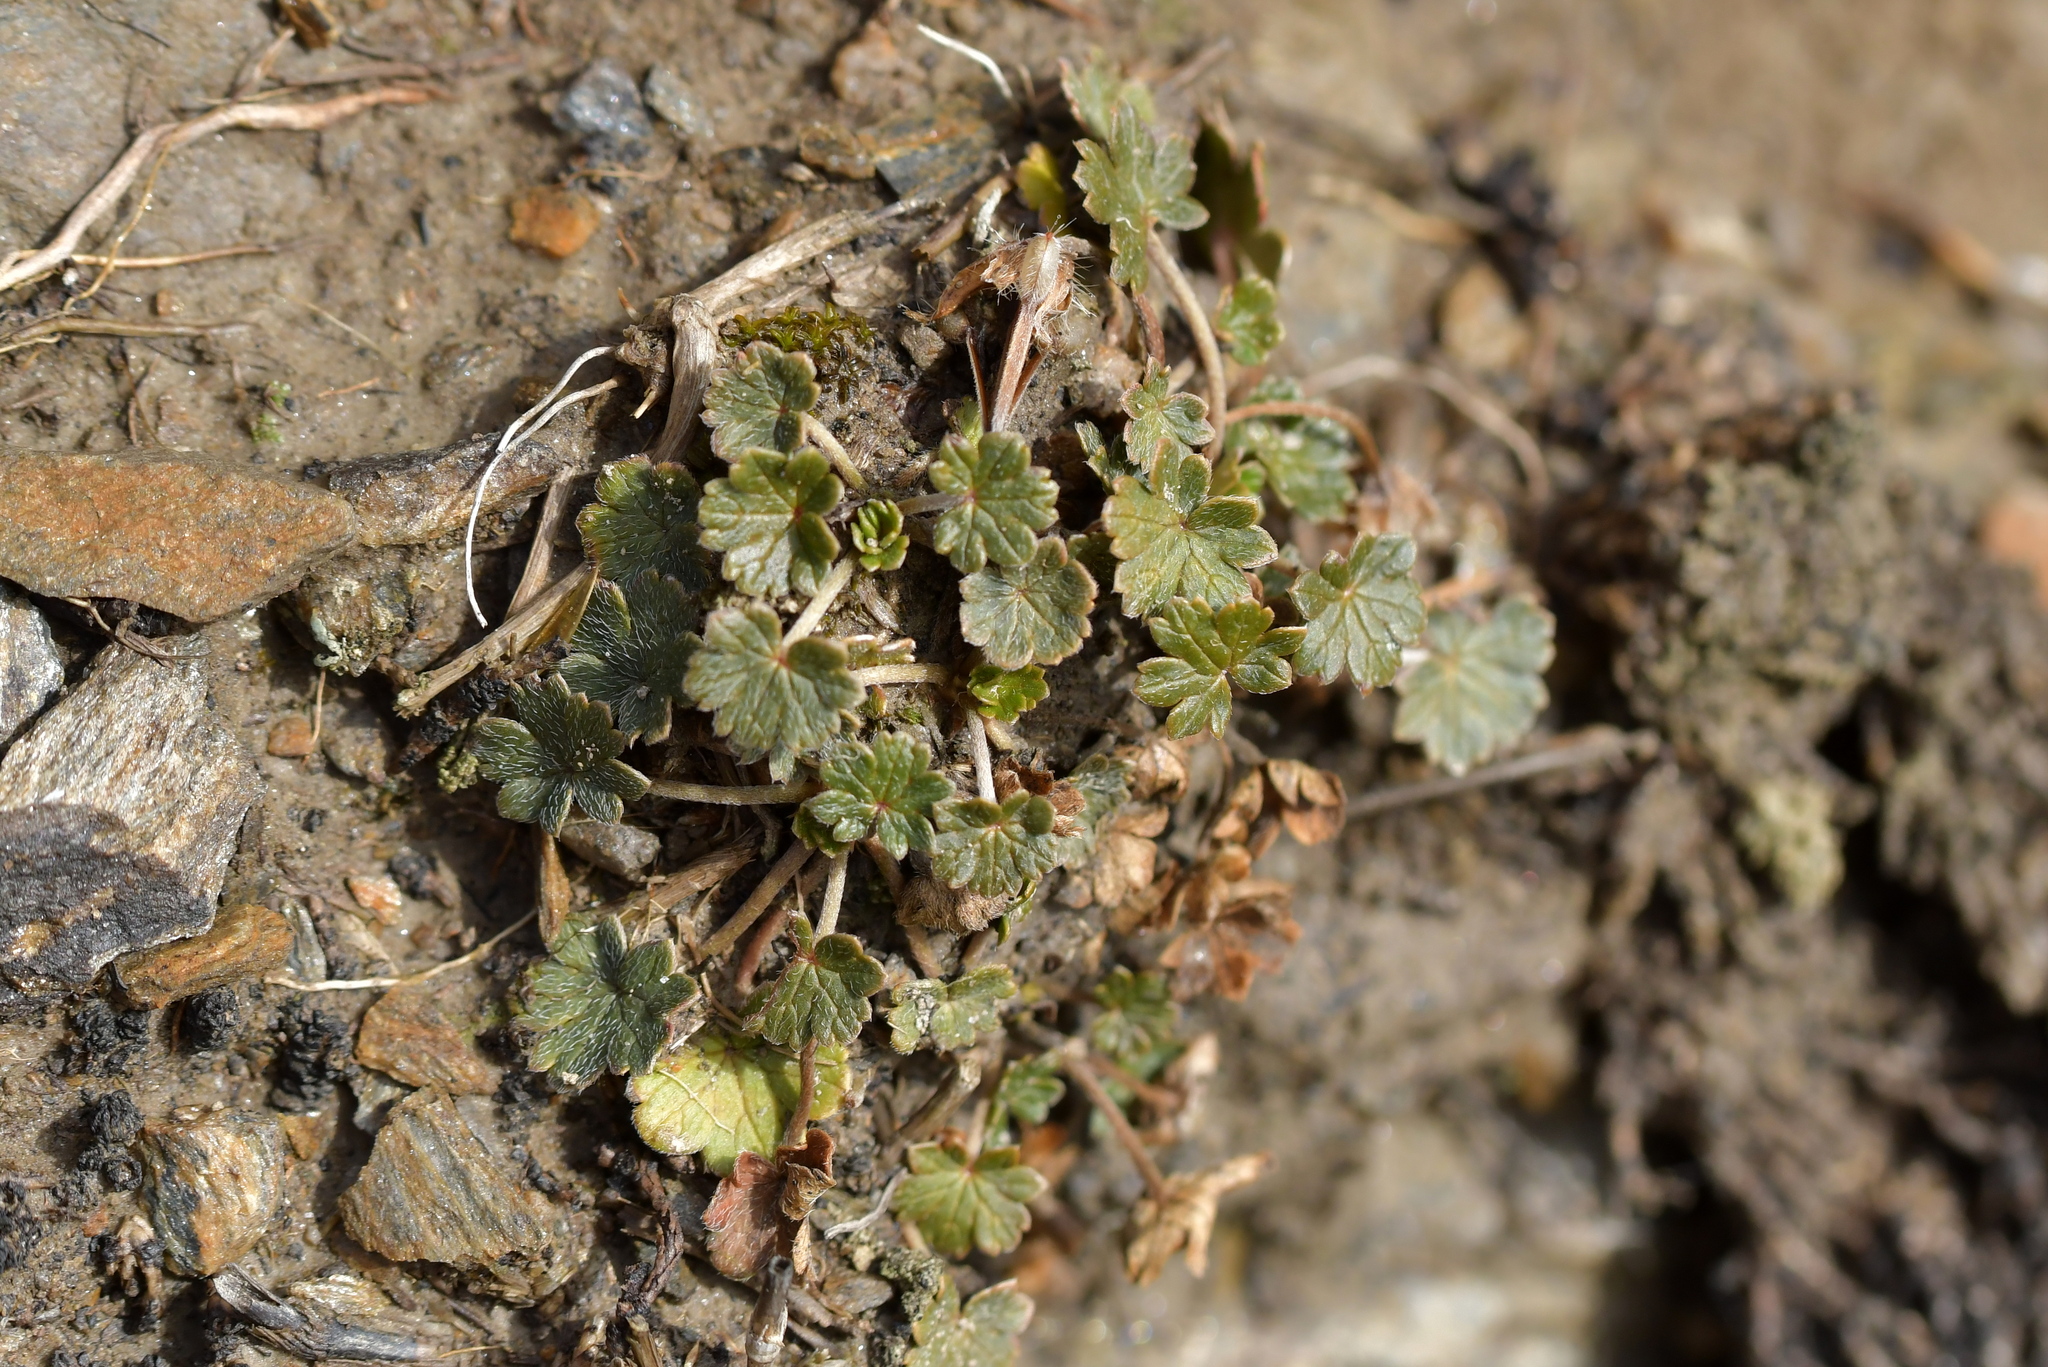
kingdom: Plantae
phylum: Tracheophyta
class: Magnoliopsida
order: Geraniales
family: Geraniaceae
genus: Geranium
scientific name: Geranium brevicaule
